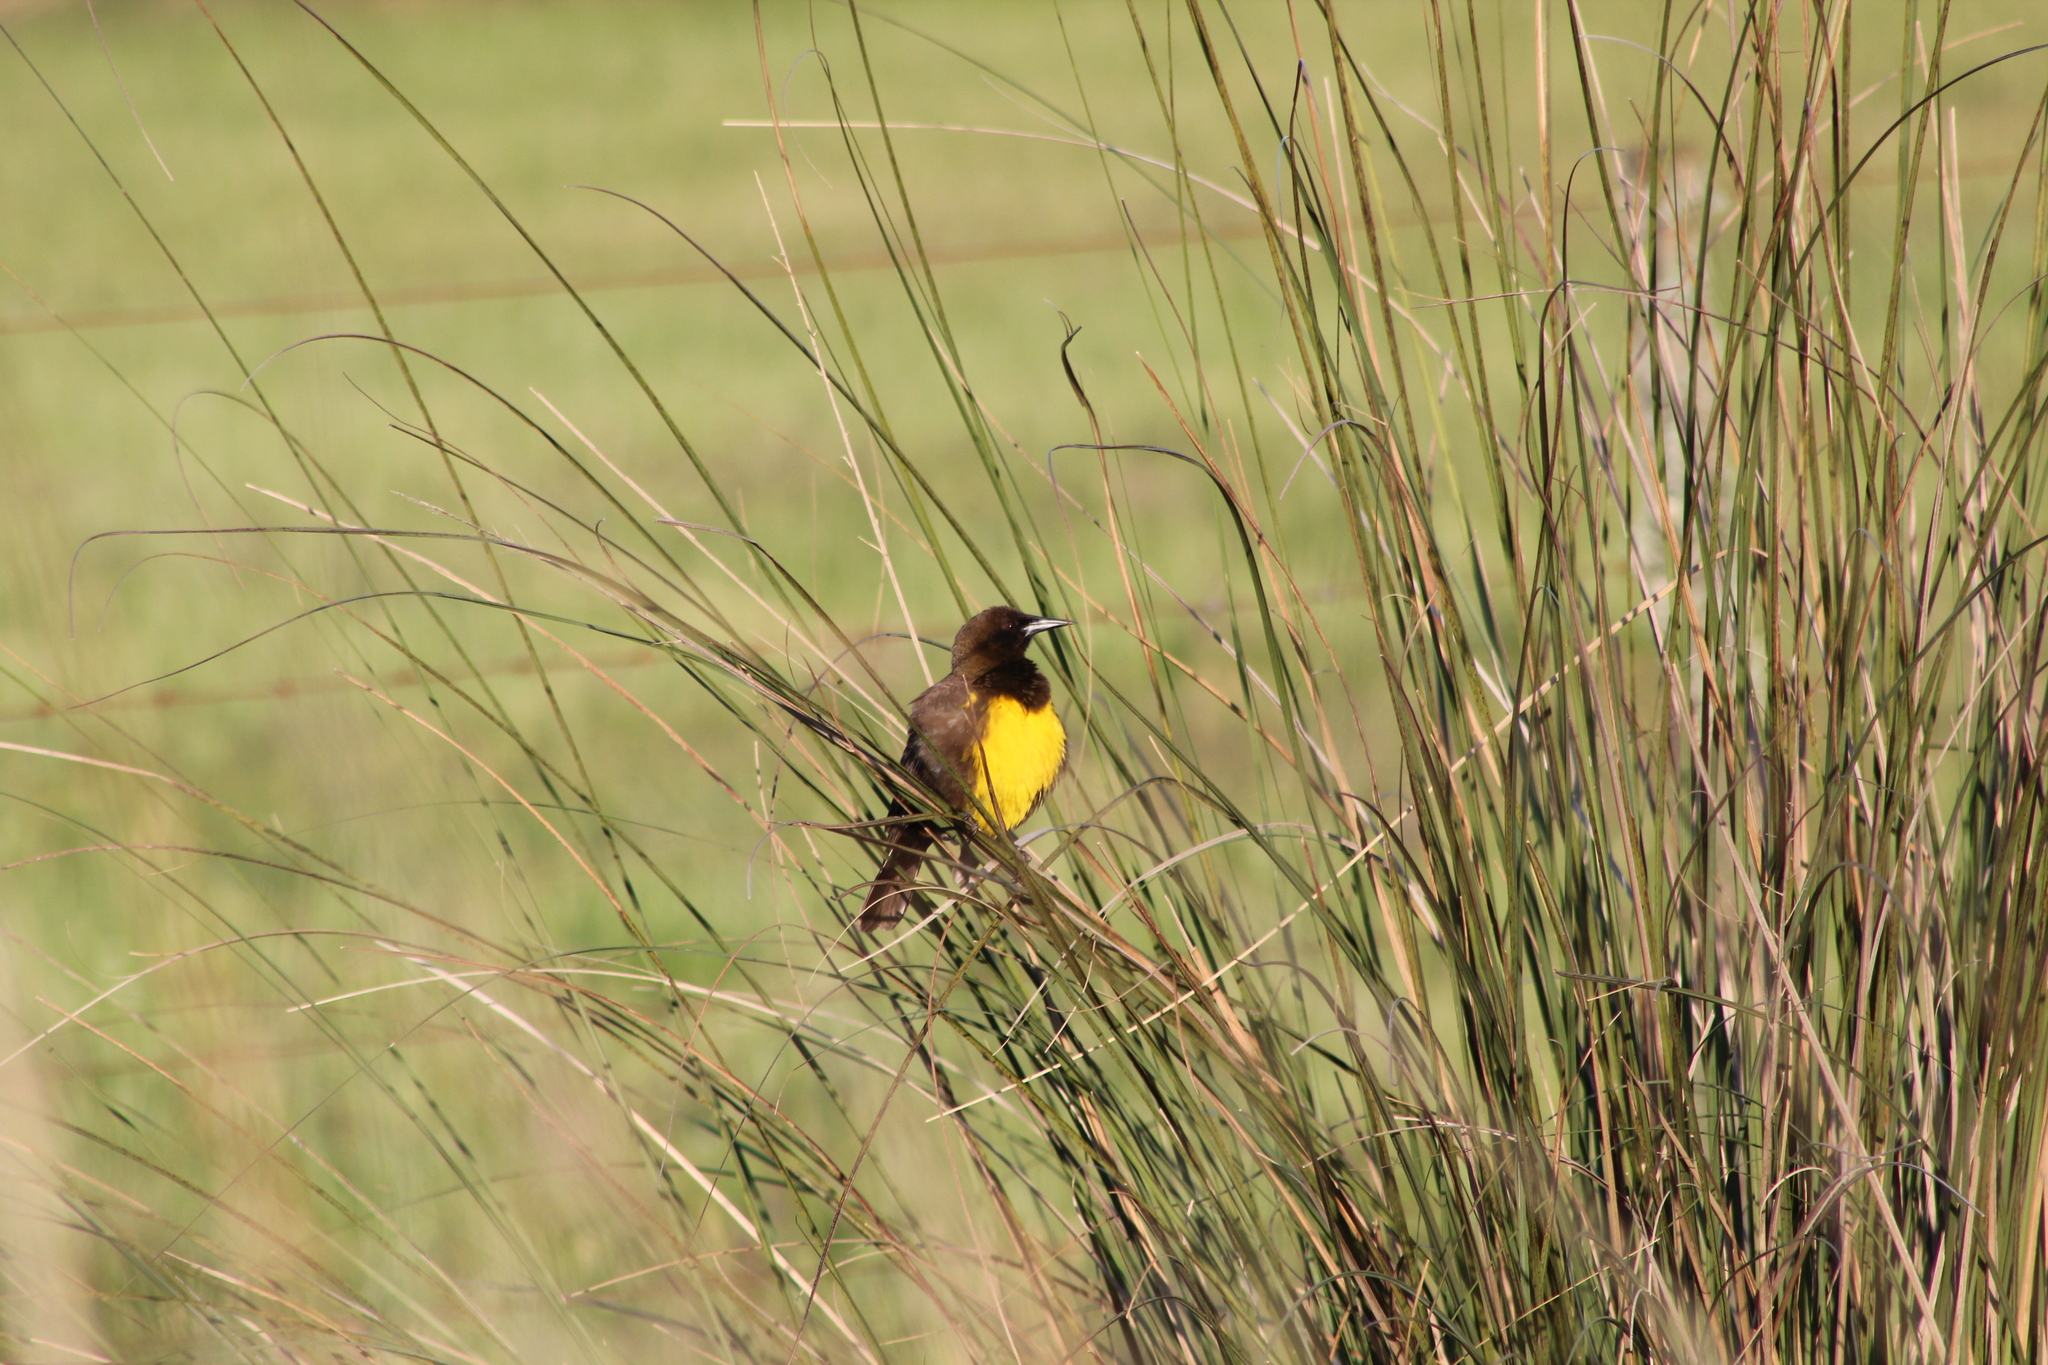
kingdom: Animalia
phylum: Chordata
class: Aves
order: Passeriformes
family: Icteridae
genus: Pseudoleistes
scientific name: Pseudoleistes virescens
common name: Brown-and-yellow marshbird
